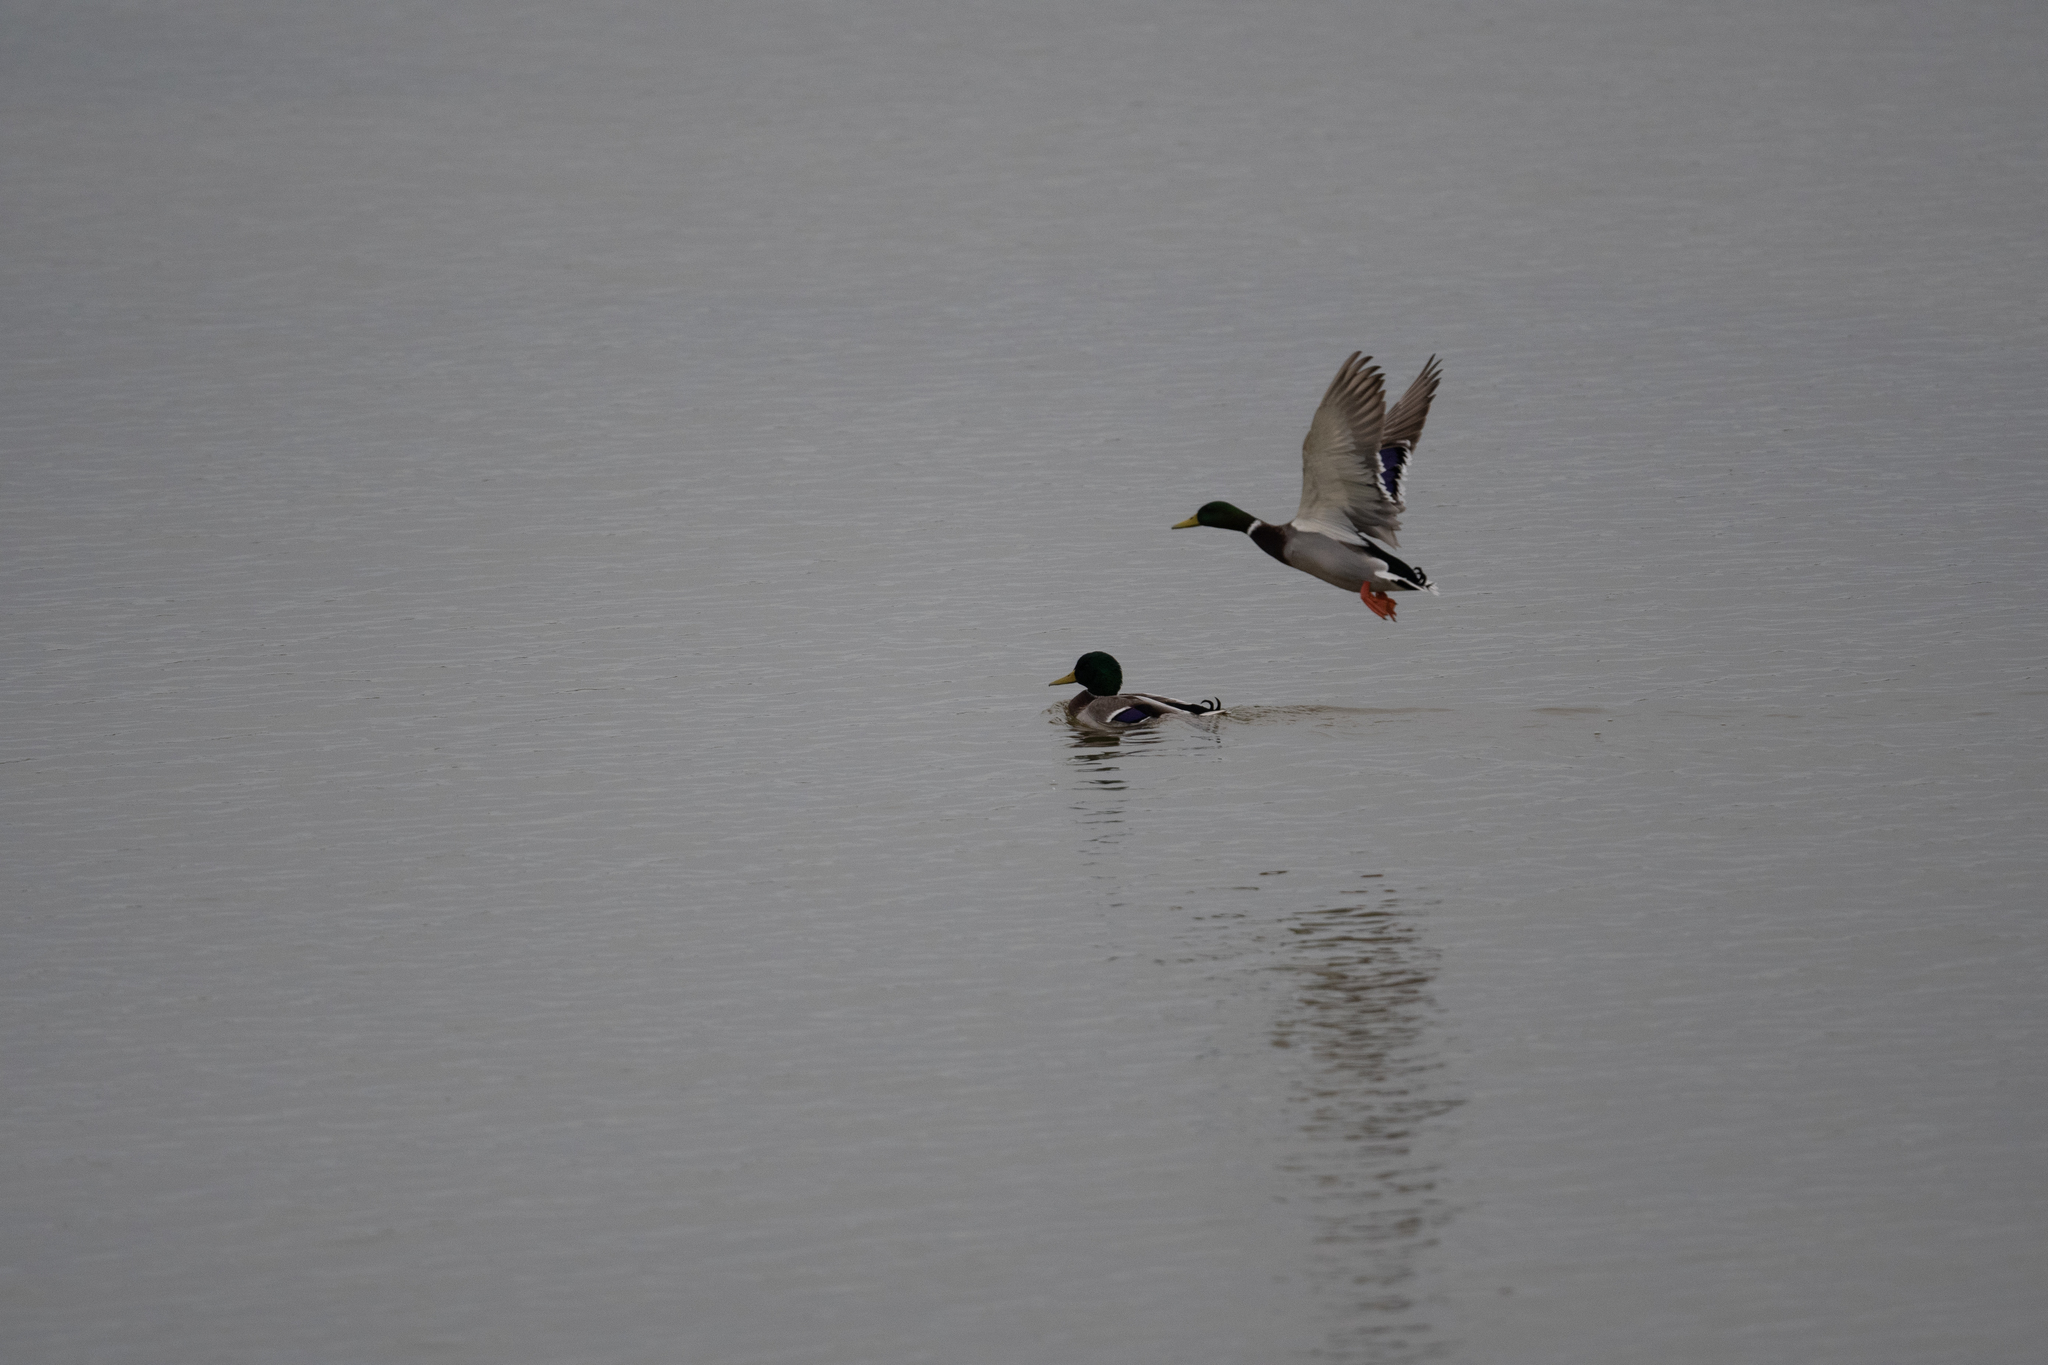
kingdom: Animalia
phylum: Chordata
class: Aves
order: Anseriformes
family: Anatidae
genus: Anas
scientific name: Anas platyrhynchos
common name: Mallard
